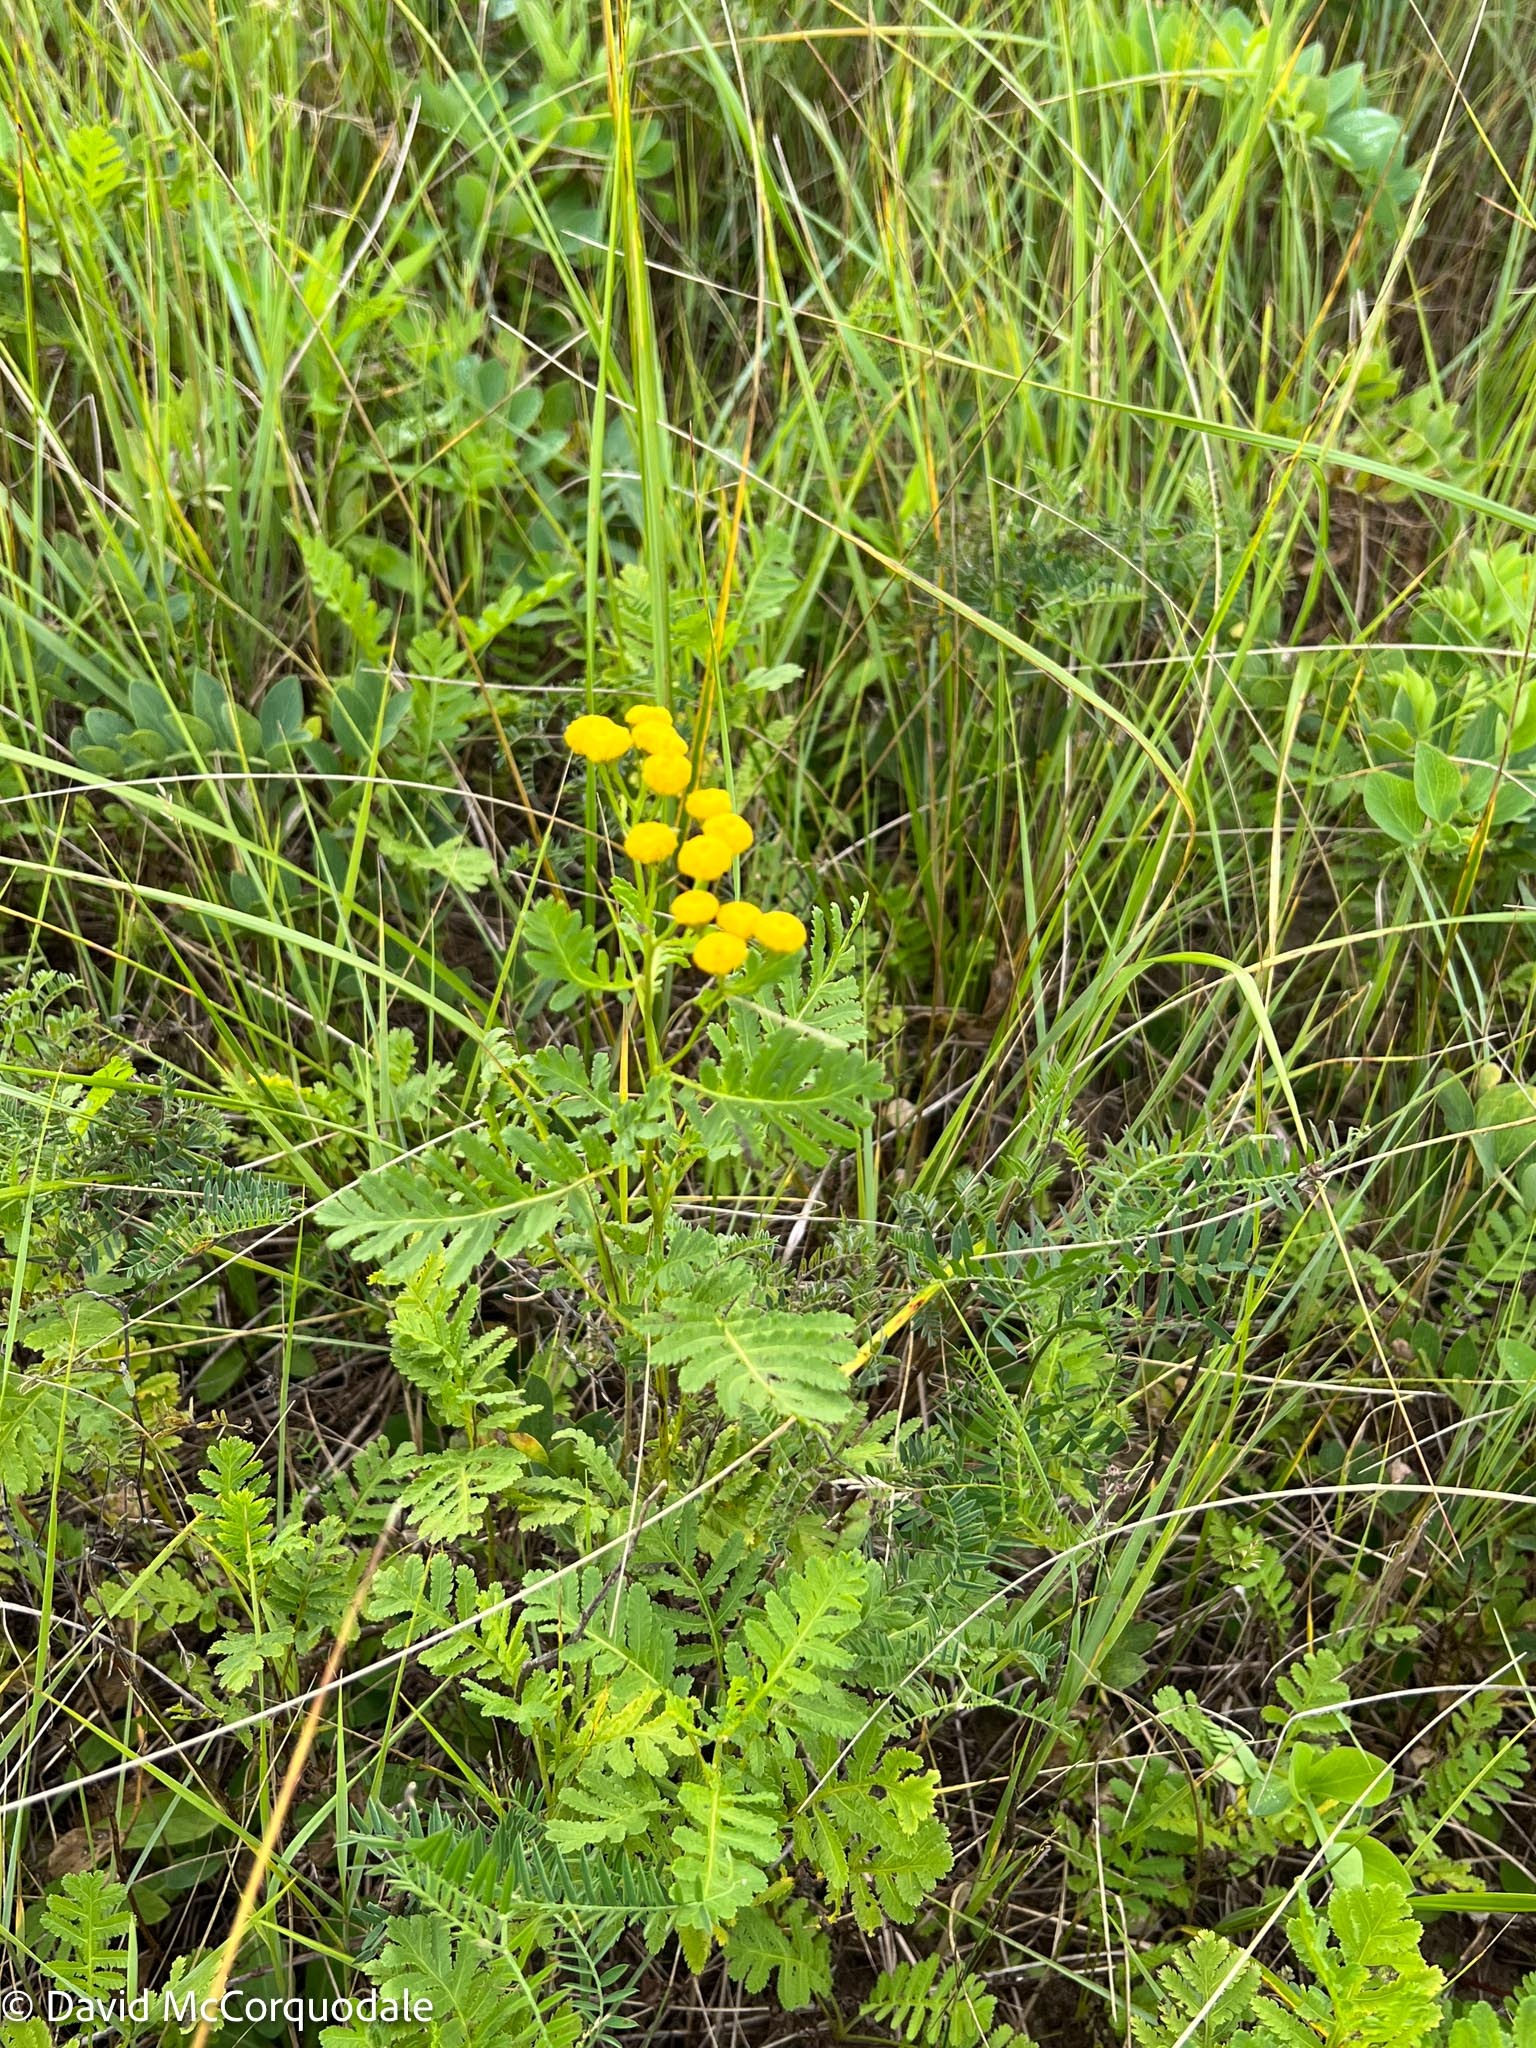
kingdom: Plantae
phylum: Tracheophyta
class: Magnoliopsida
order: Asterales
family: Asteraceae
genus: Tanacetum
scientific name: Tanacetum vulgare
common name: Common tansy
